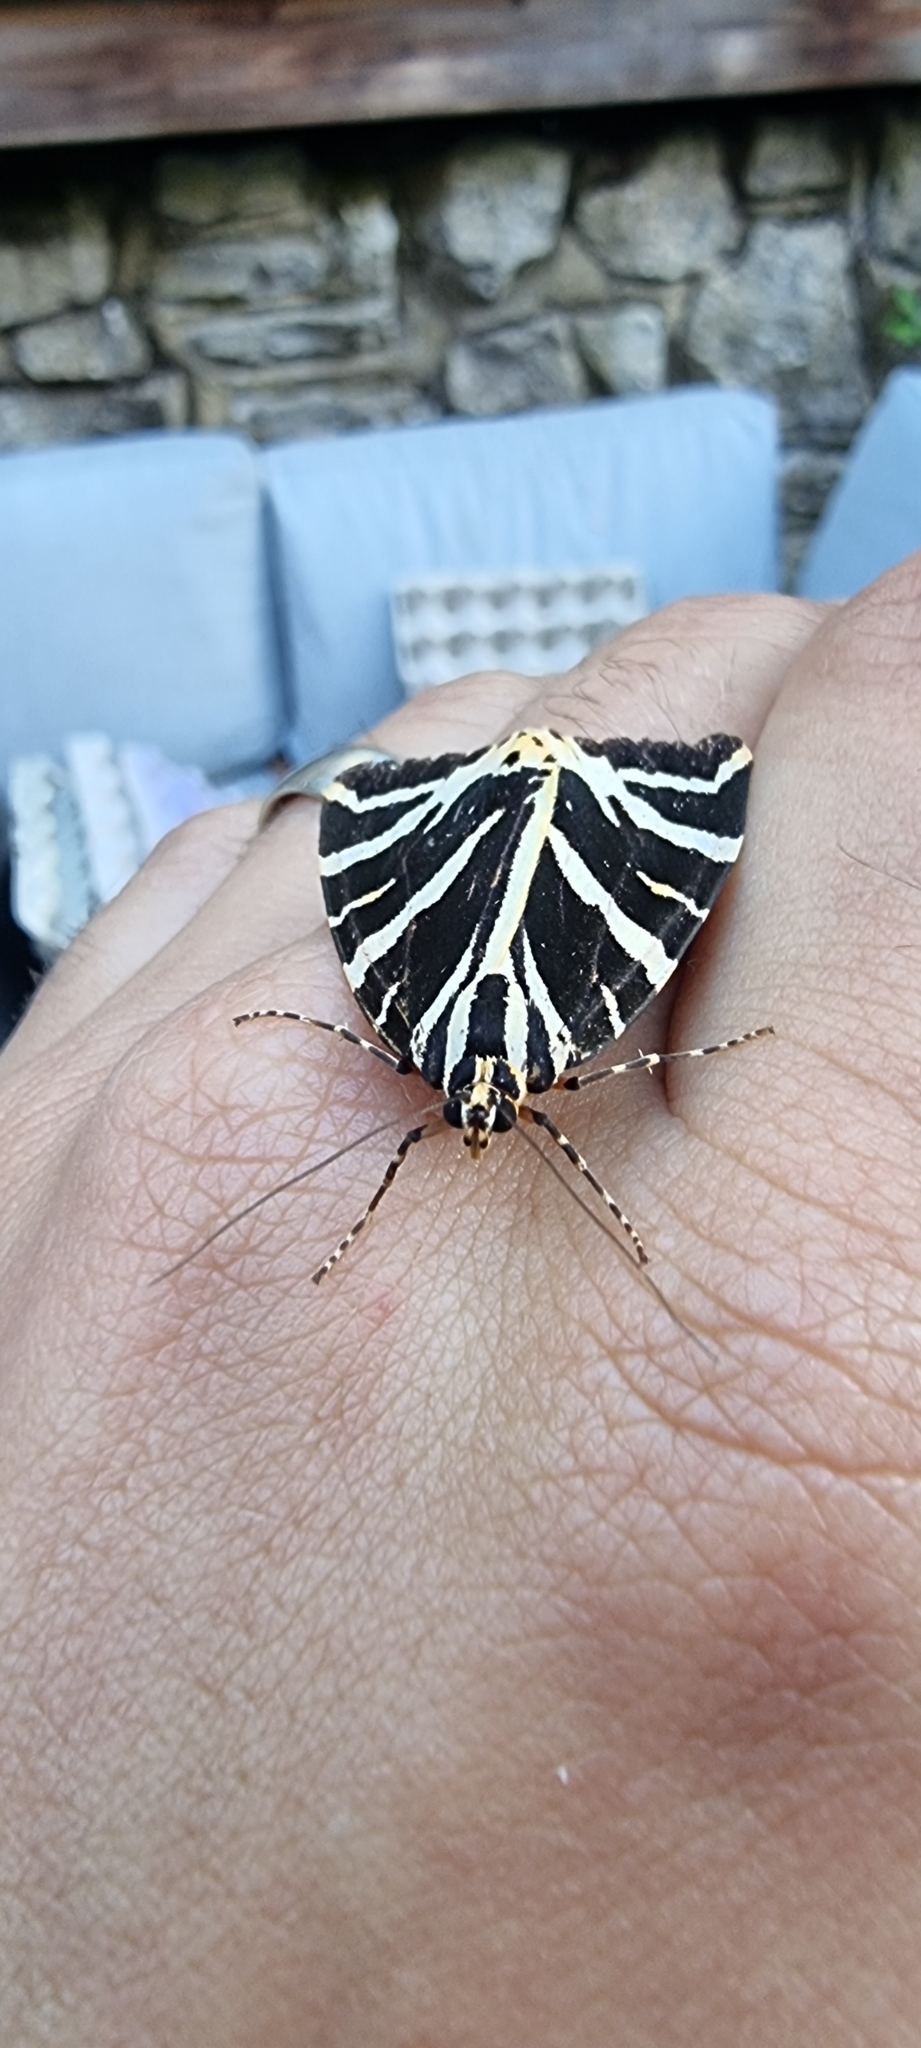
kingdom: Animalia
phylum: Arthropoda
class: Insecta
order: Lepidoptera
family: Erebidae
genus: Euplagia
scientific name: Euplagia quadripunctaria
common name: Jersey tiger
